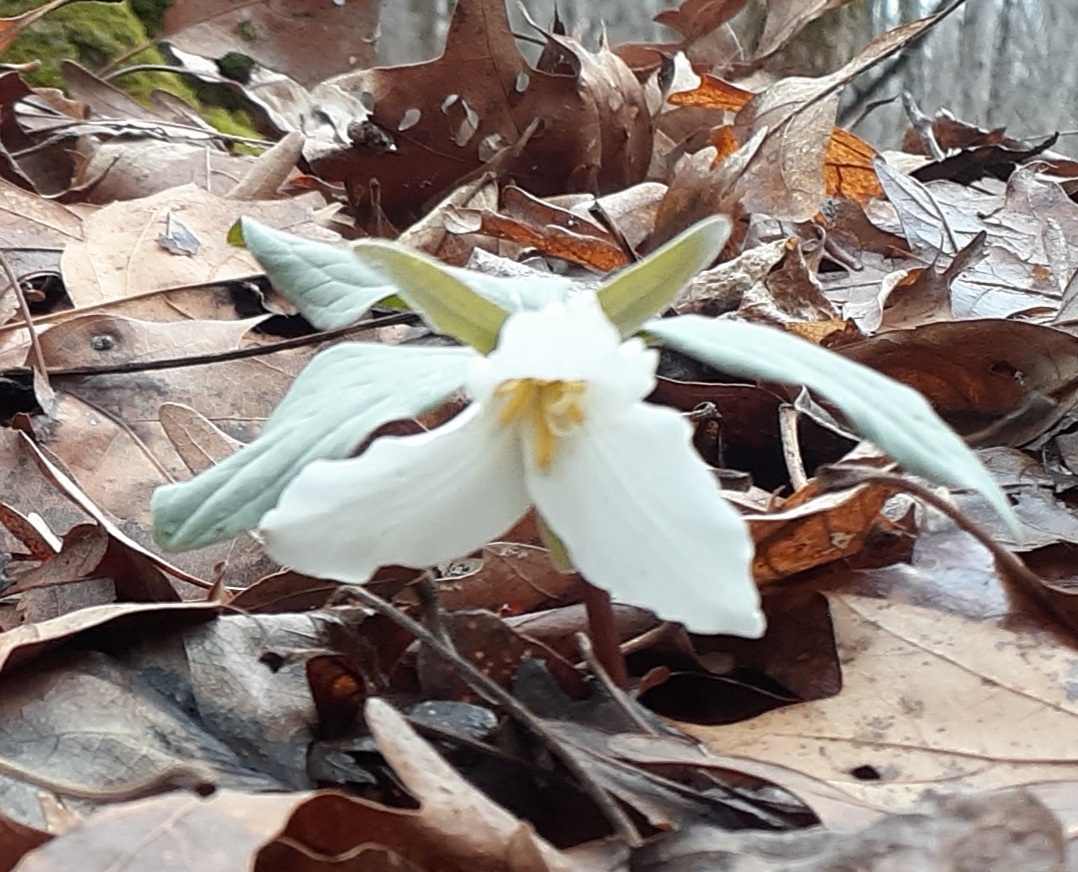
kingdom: Plantae
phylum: Tracheophyta
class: Liliopsida
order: Liliales
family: Melanthiaceae
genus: Trillium
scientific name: Trillium nivale
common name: Dwarf white trillium
